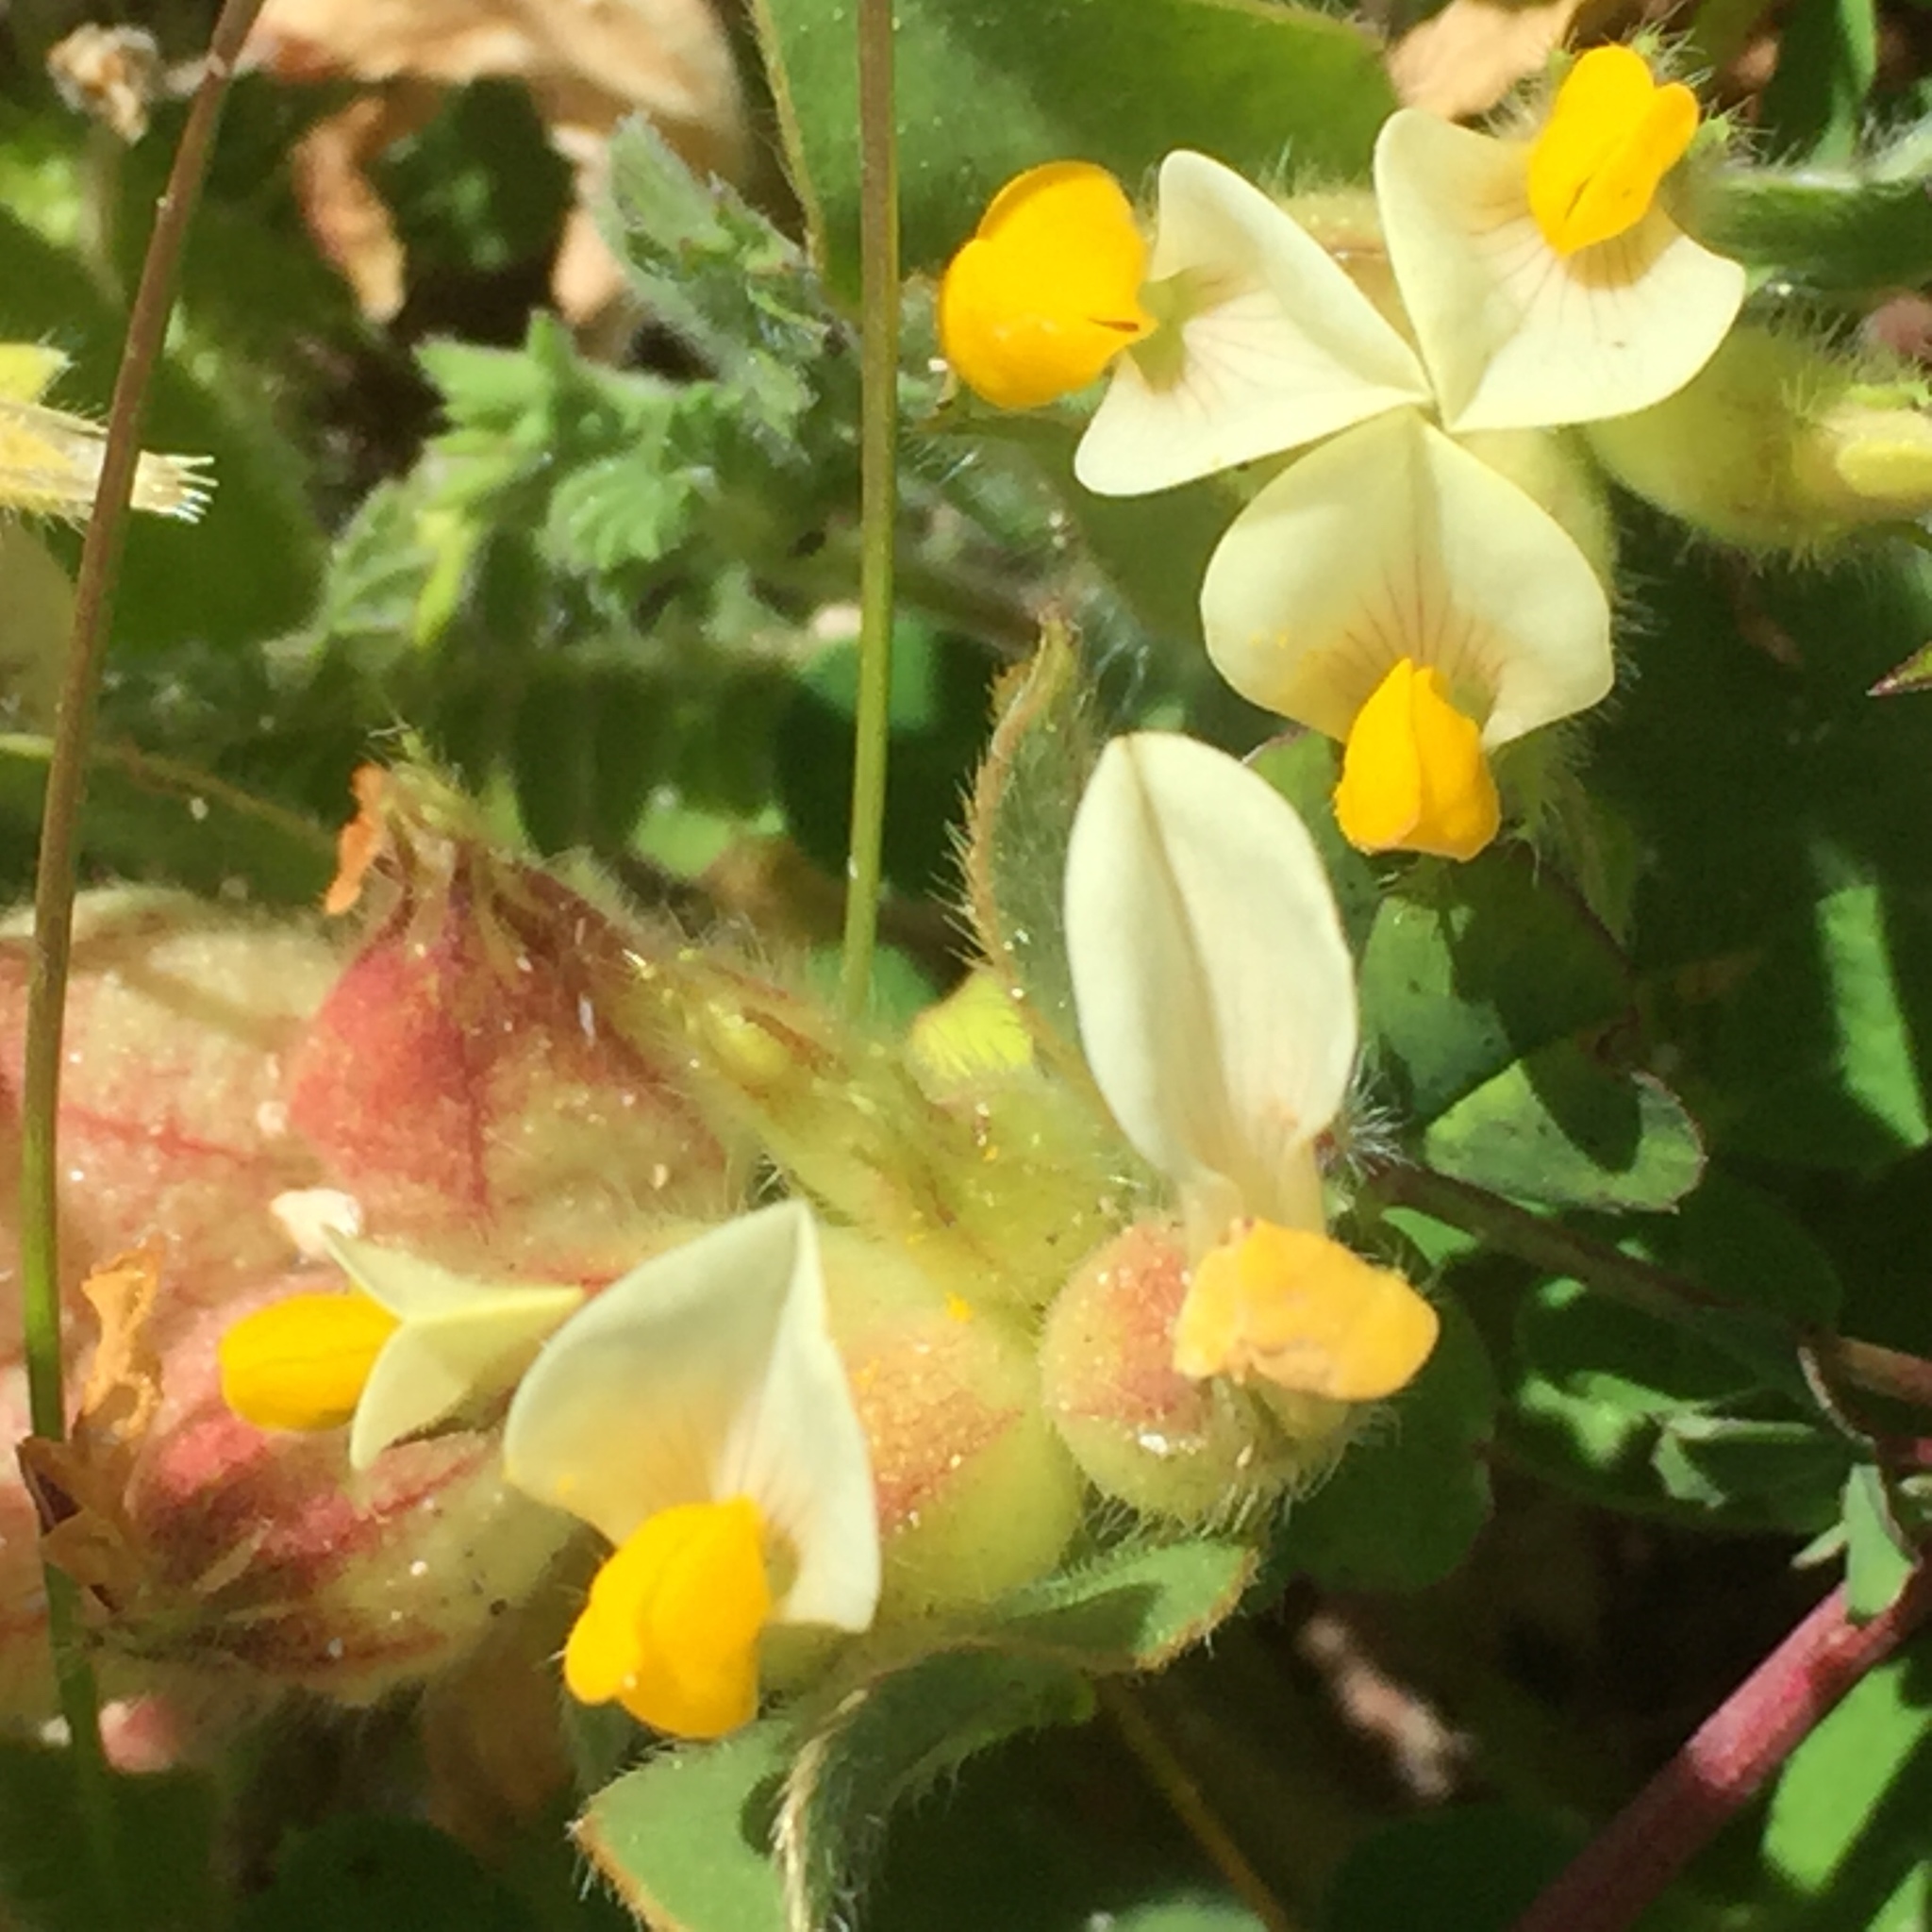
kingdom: Plantae
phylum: Tracheophyta
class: Magnoliopsida
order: Fabales
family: Fabaceae
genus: Tripodion
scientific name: Tripodion tetraphyllum
